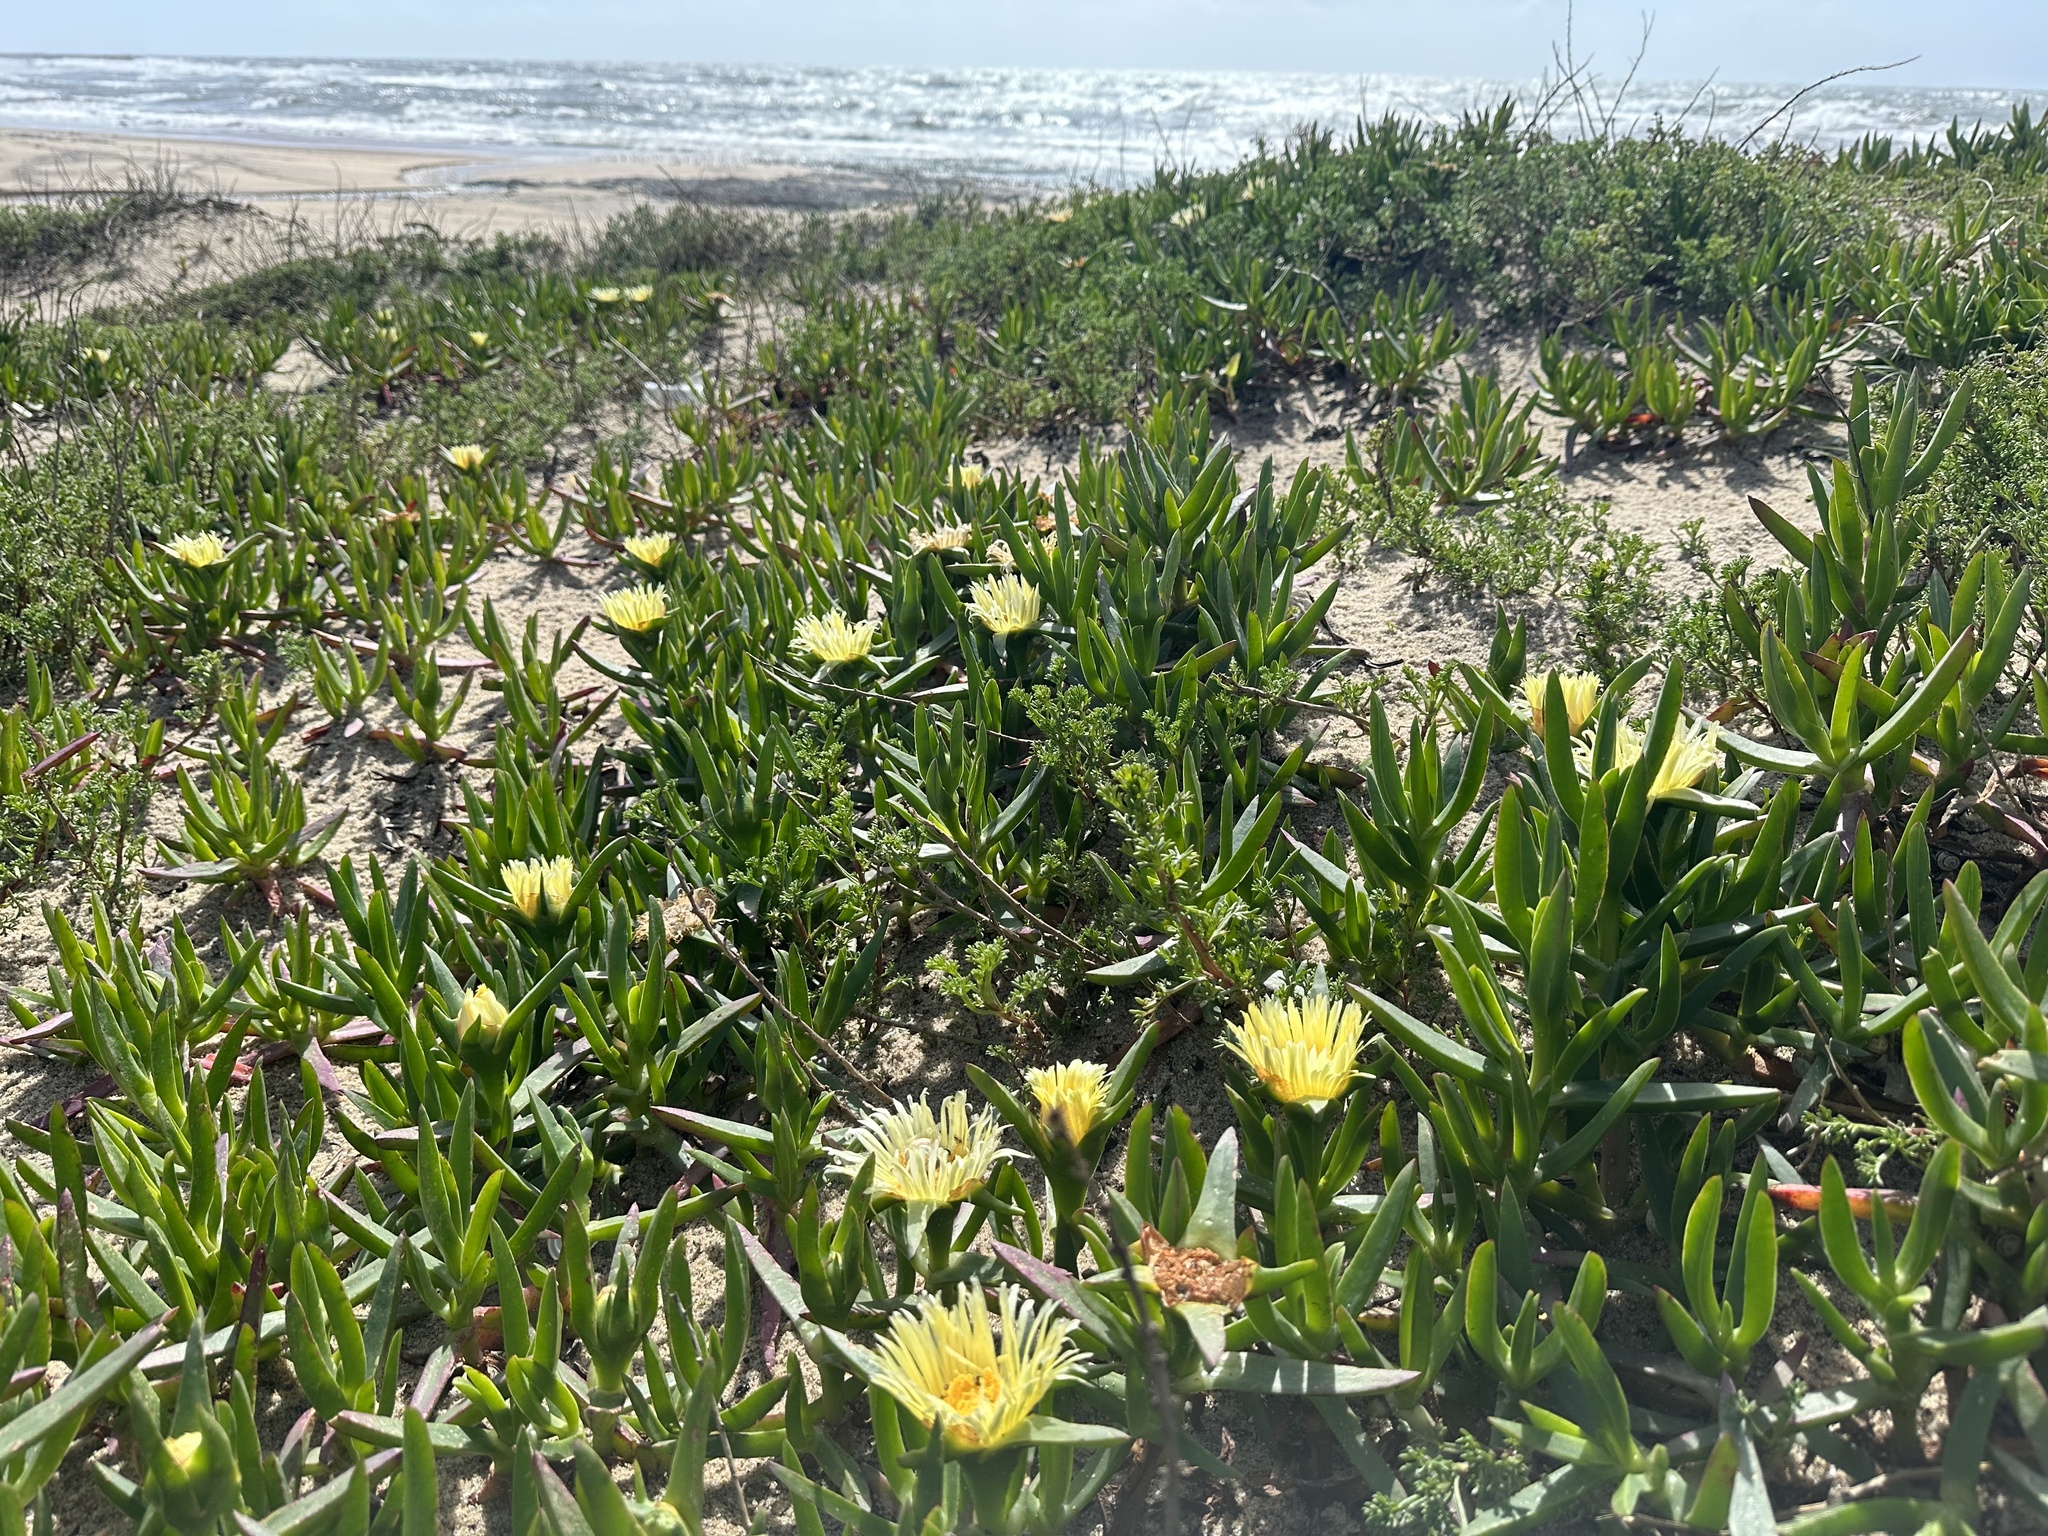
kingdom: Plantae
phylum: Tracheophyta
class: Magnoliopsida
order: Caryophyllales
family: Aizoaceae
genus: Carpobrotus
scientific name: Carpobrotus edulis
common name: Hottentot-fig
